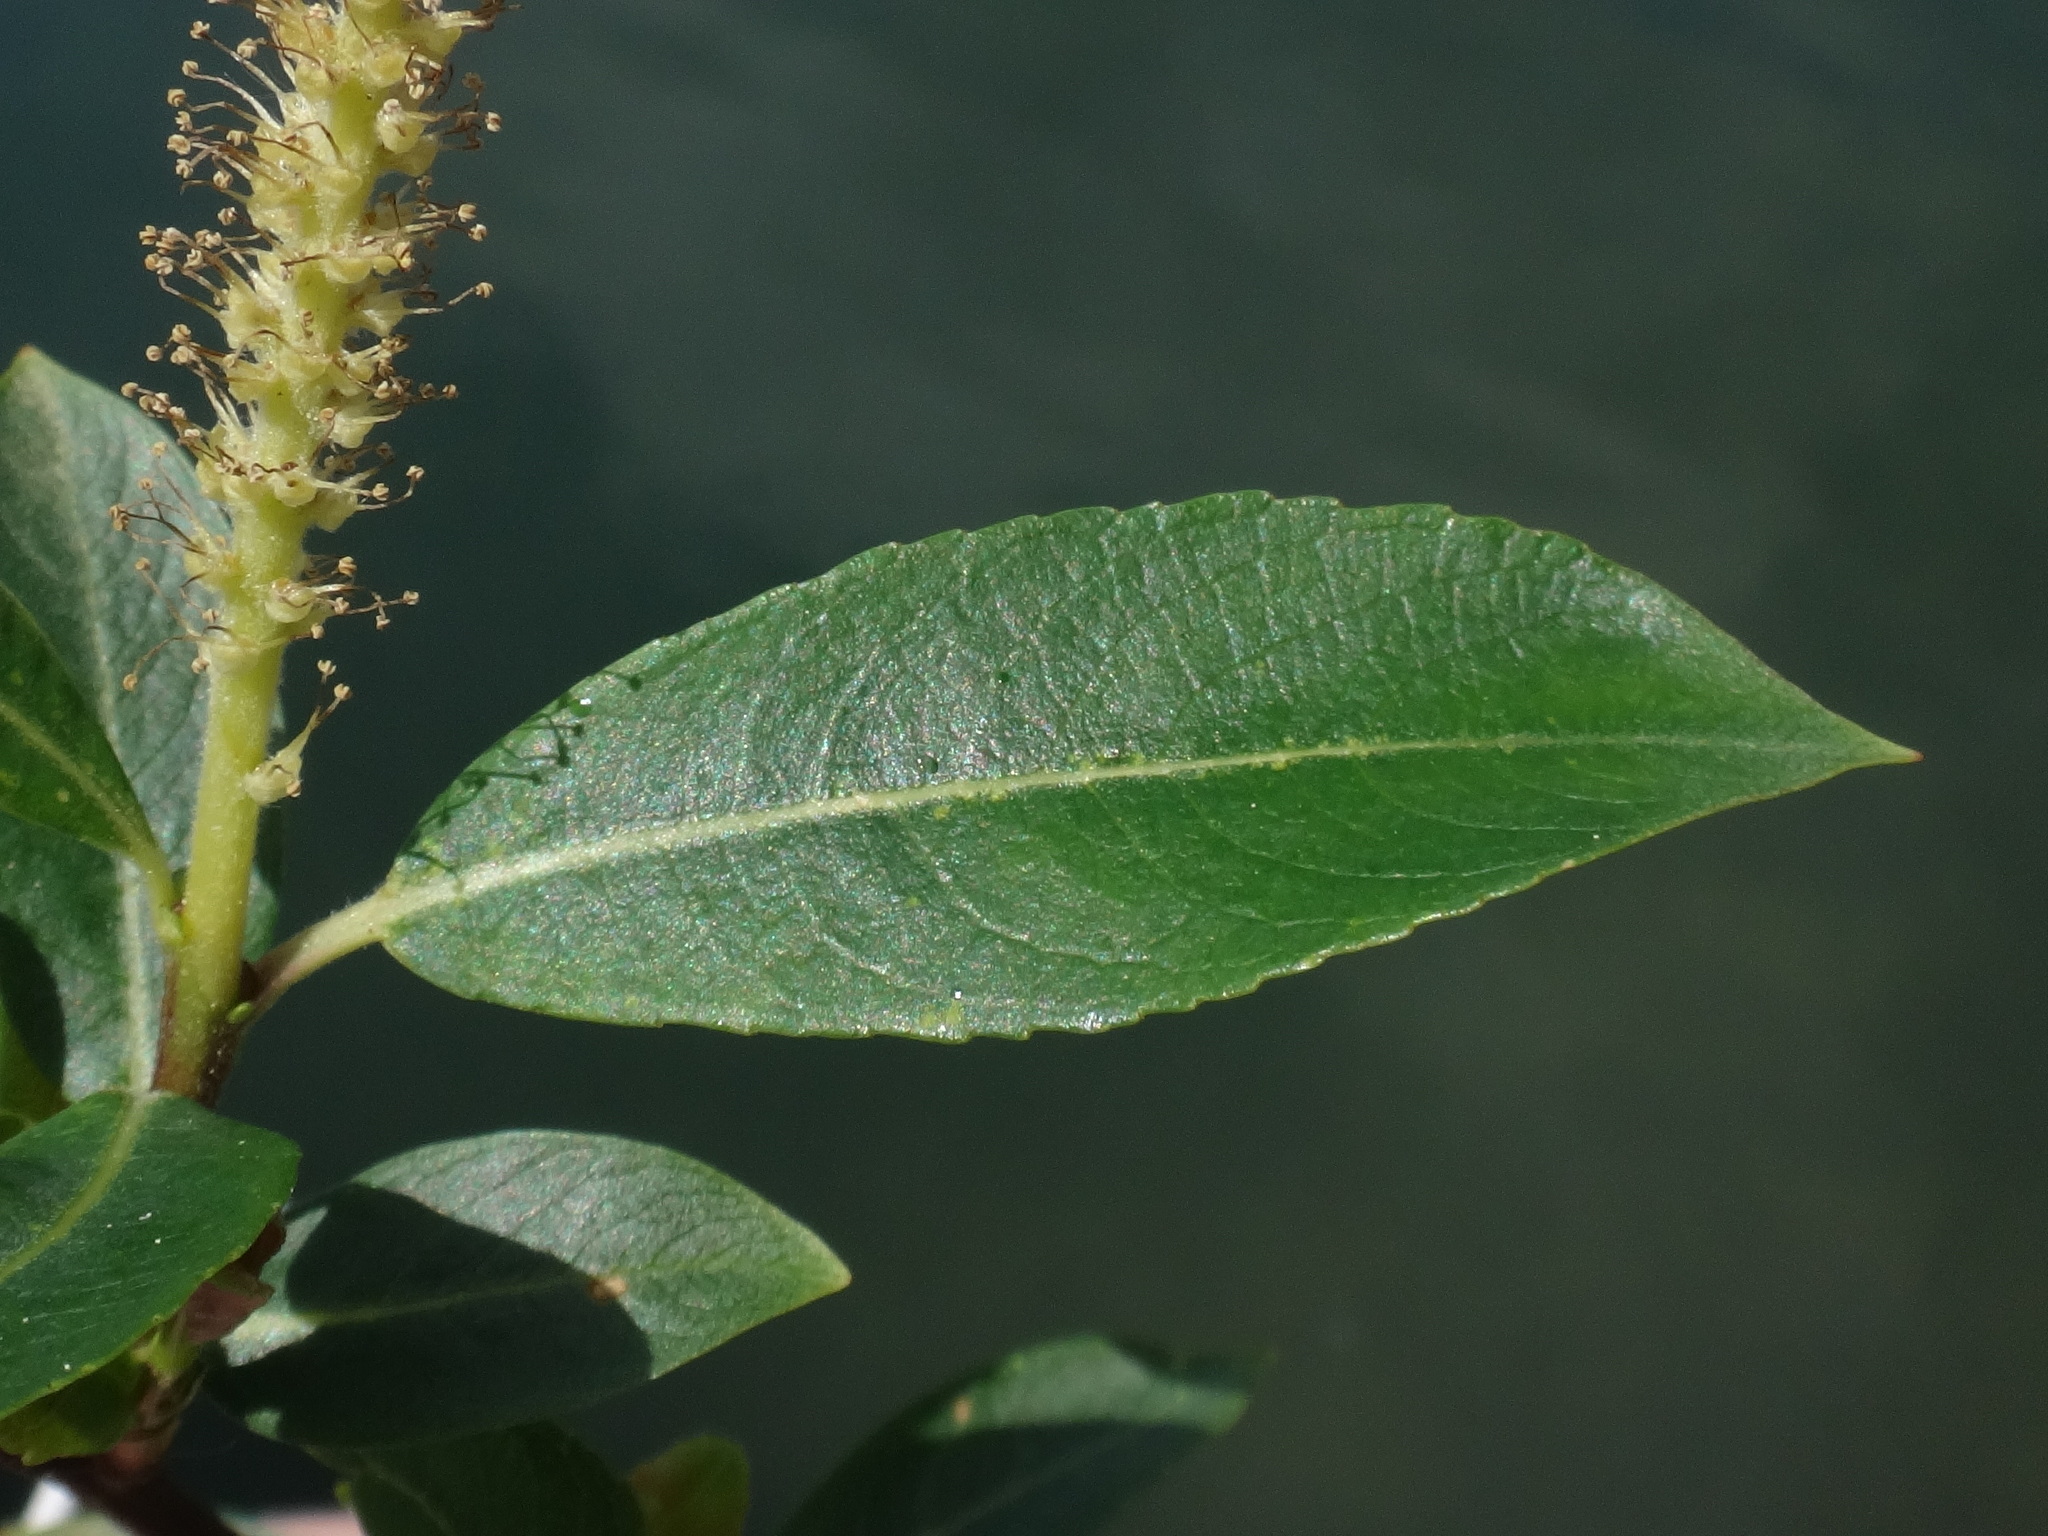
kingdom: Plantae
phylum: Tracheophyta
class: Magnoliopsida
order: Malpighiales
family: Salicaceae
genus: Salix
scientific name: Salix triandra
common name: Almond willow
